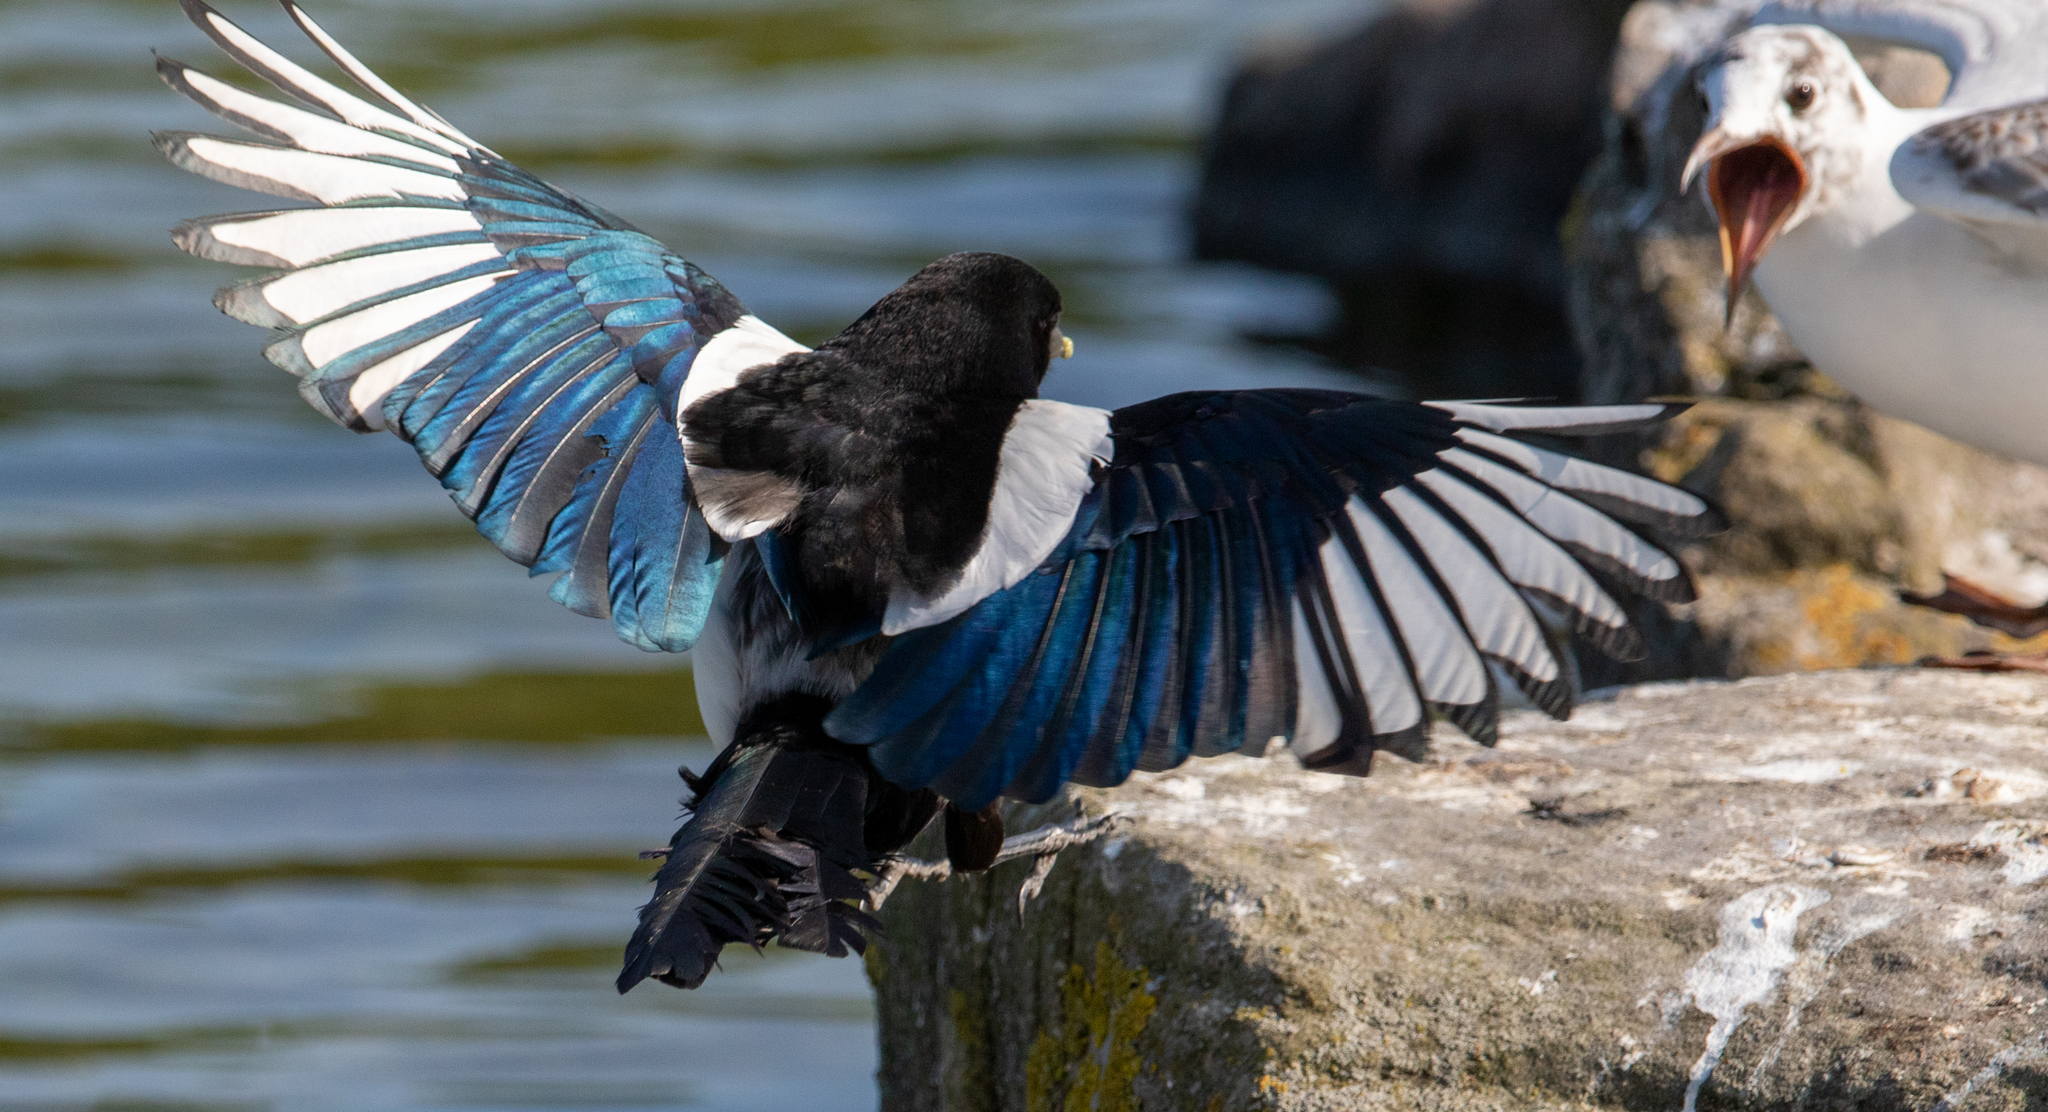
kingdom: Animalia
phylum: Chordata
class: Aves
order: Passeriformes
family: Corvidae
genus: Pica
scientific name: Pica pica
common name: Eurasian magpie
